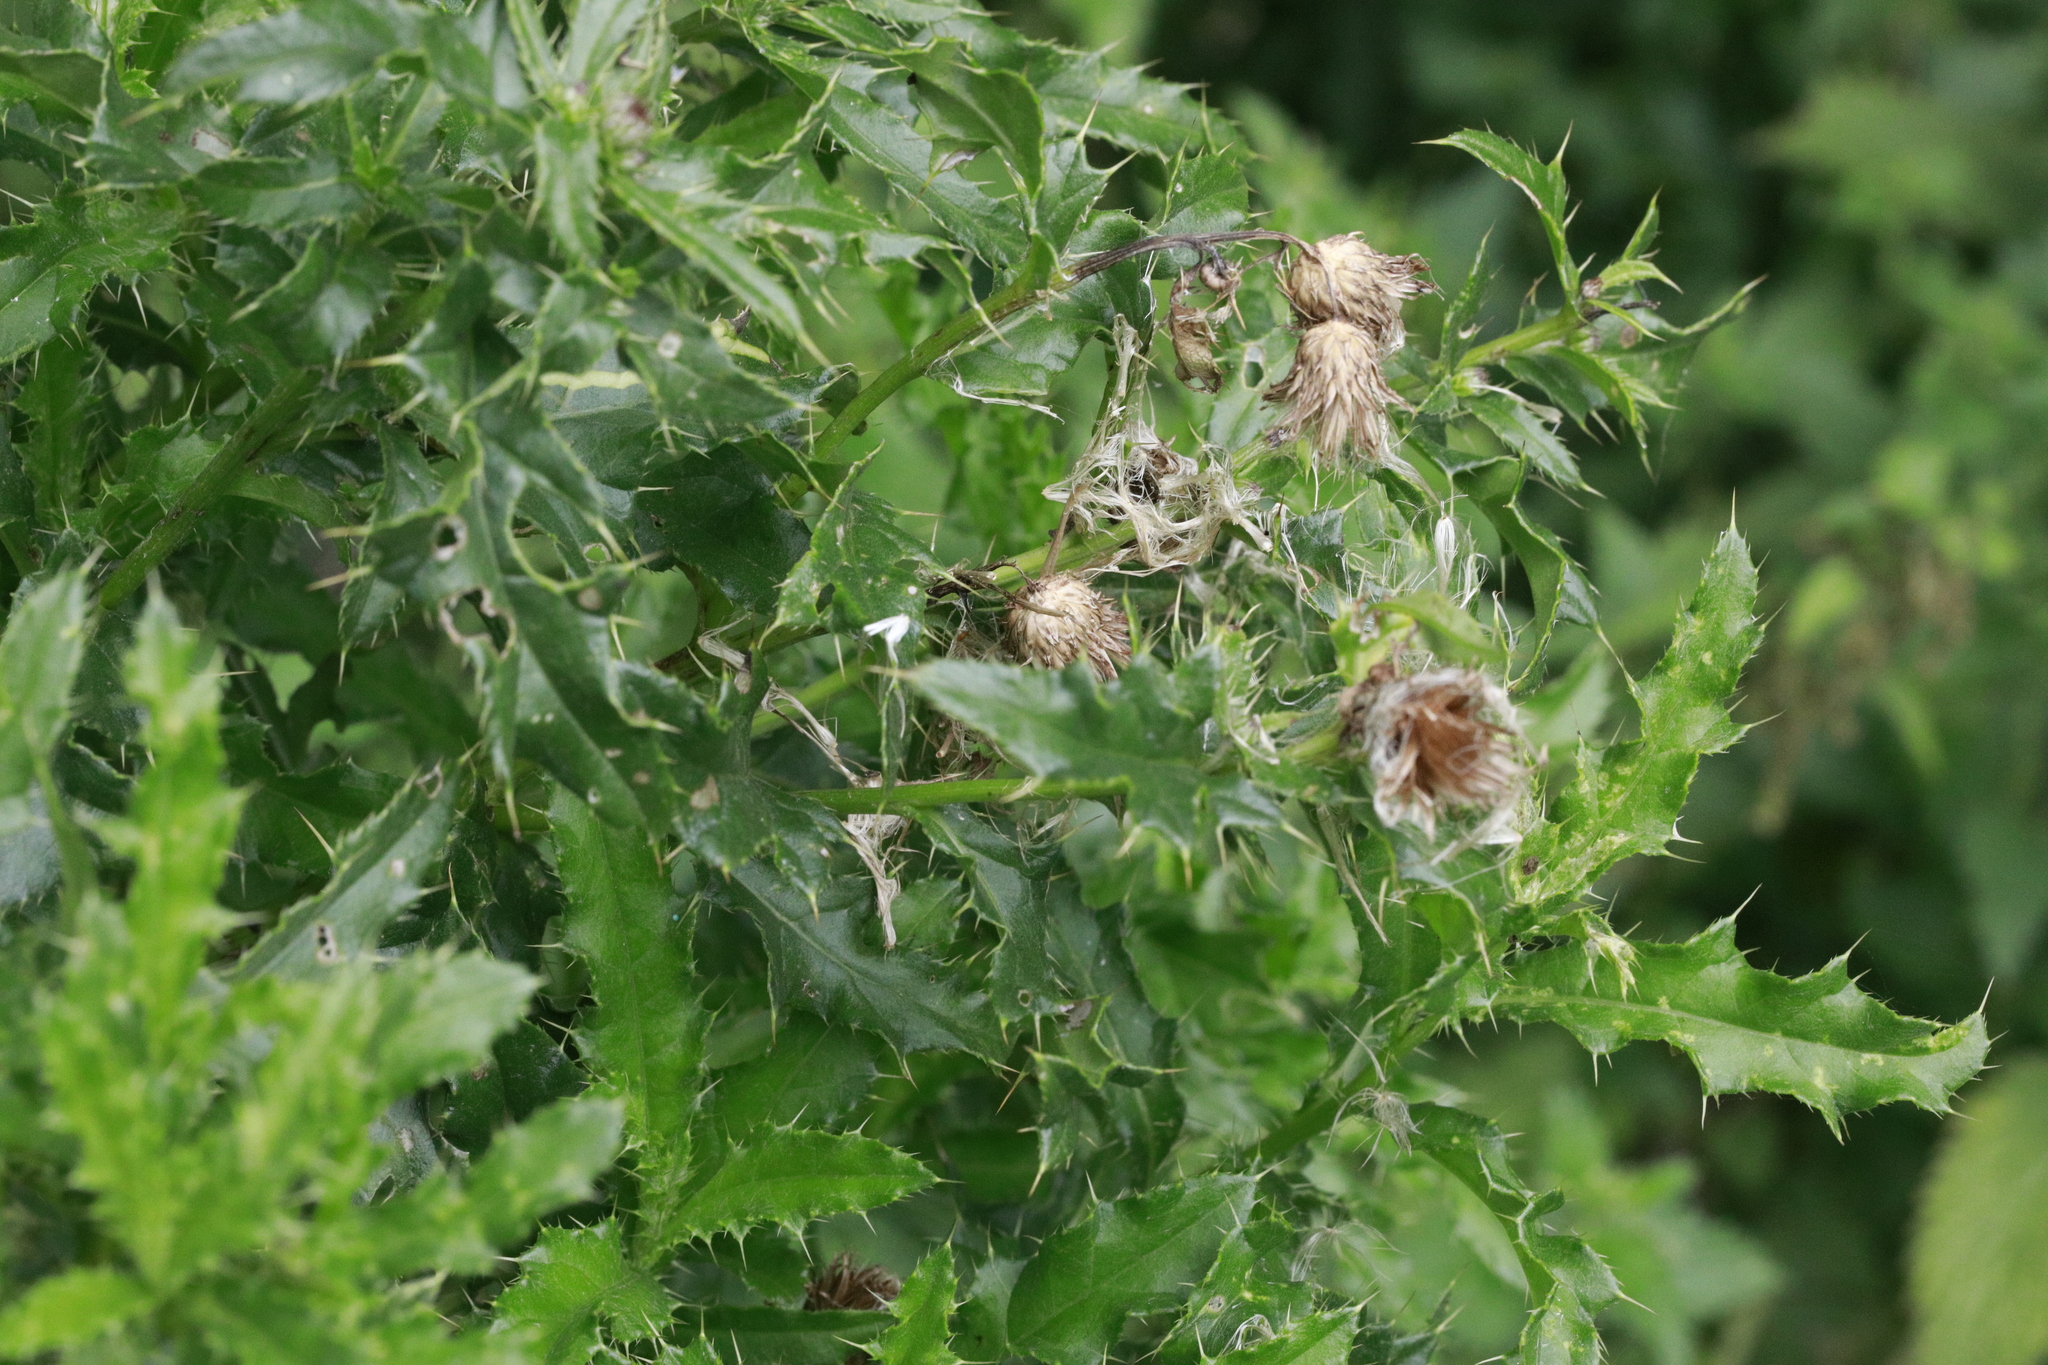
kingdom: Plantae
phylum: Tracheophyta
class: Magnoliopsida
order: Asterales
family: Asteraceae
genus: Cirsium
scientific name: Cirsium arvense
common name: Creeping thistle
